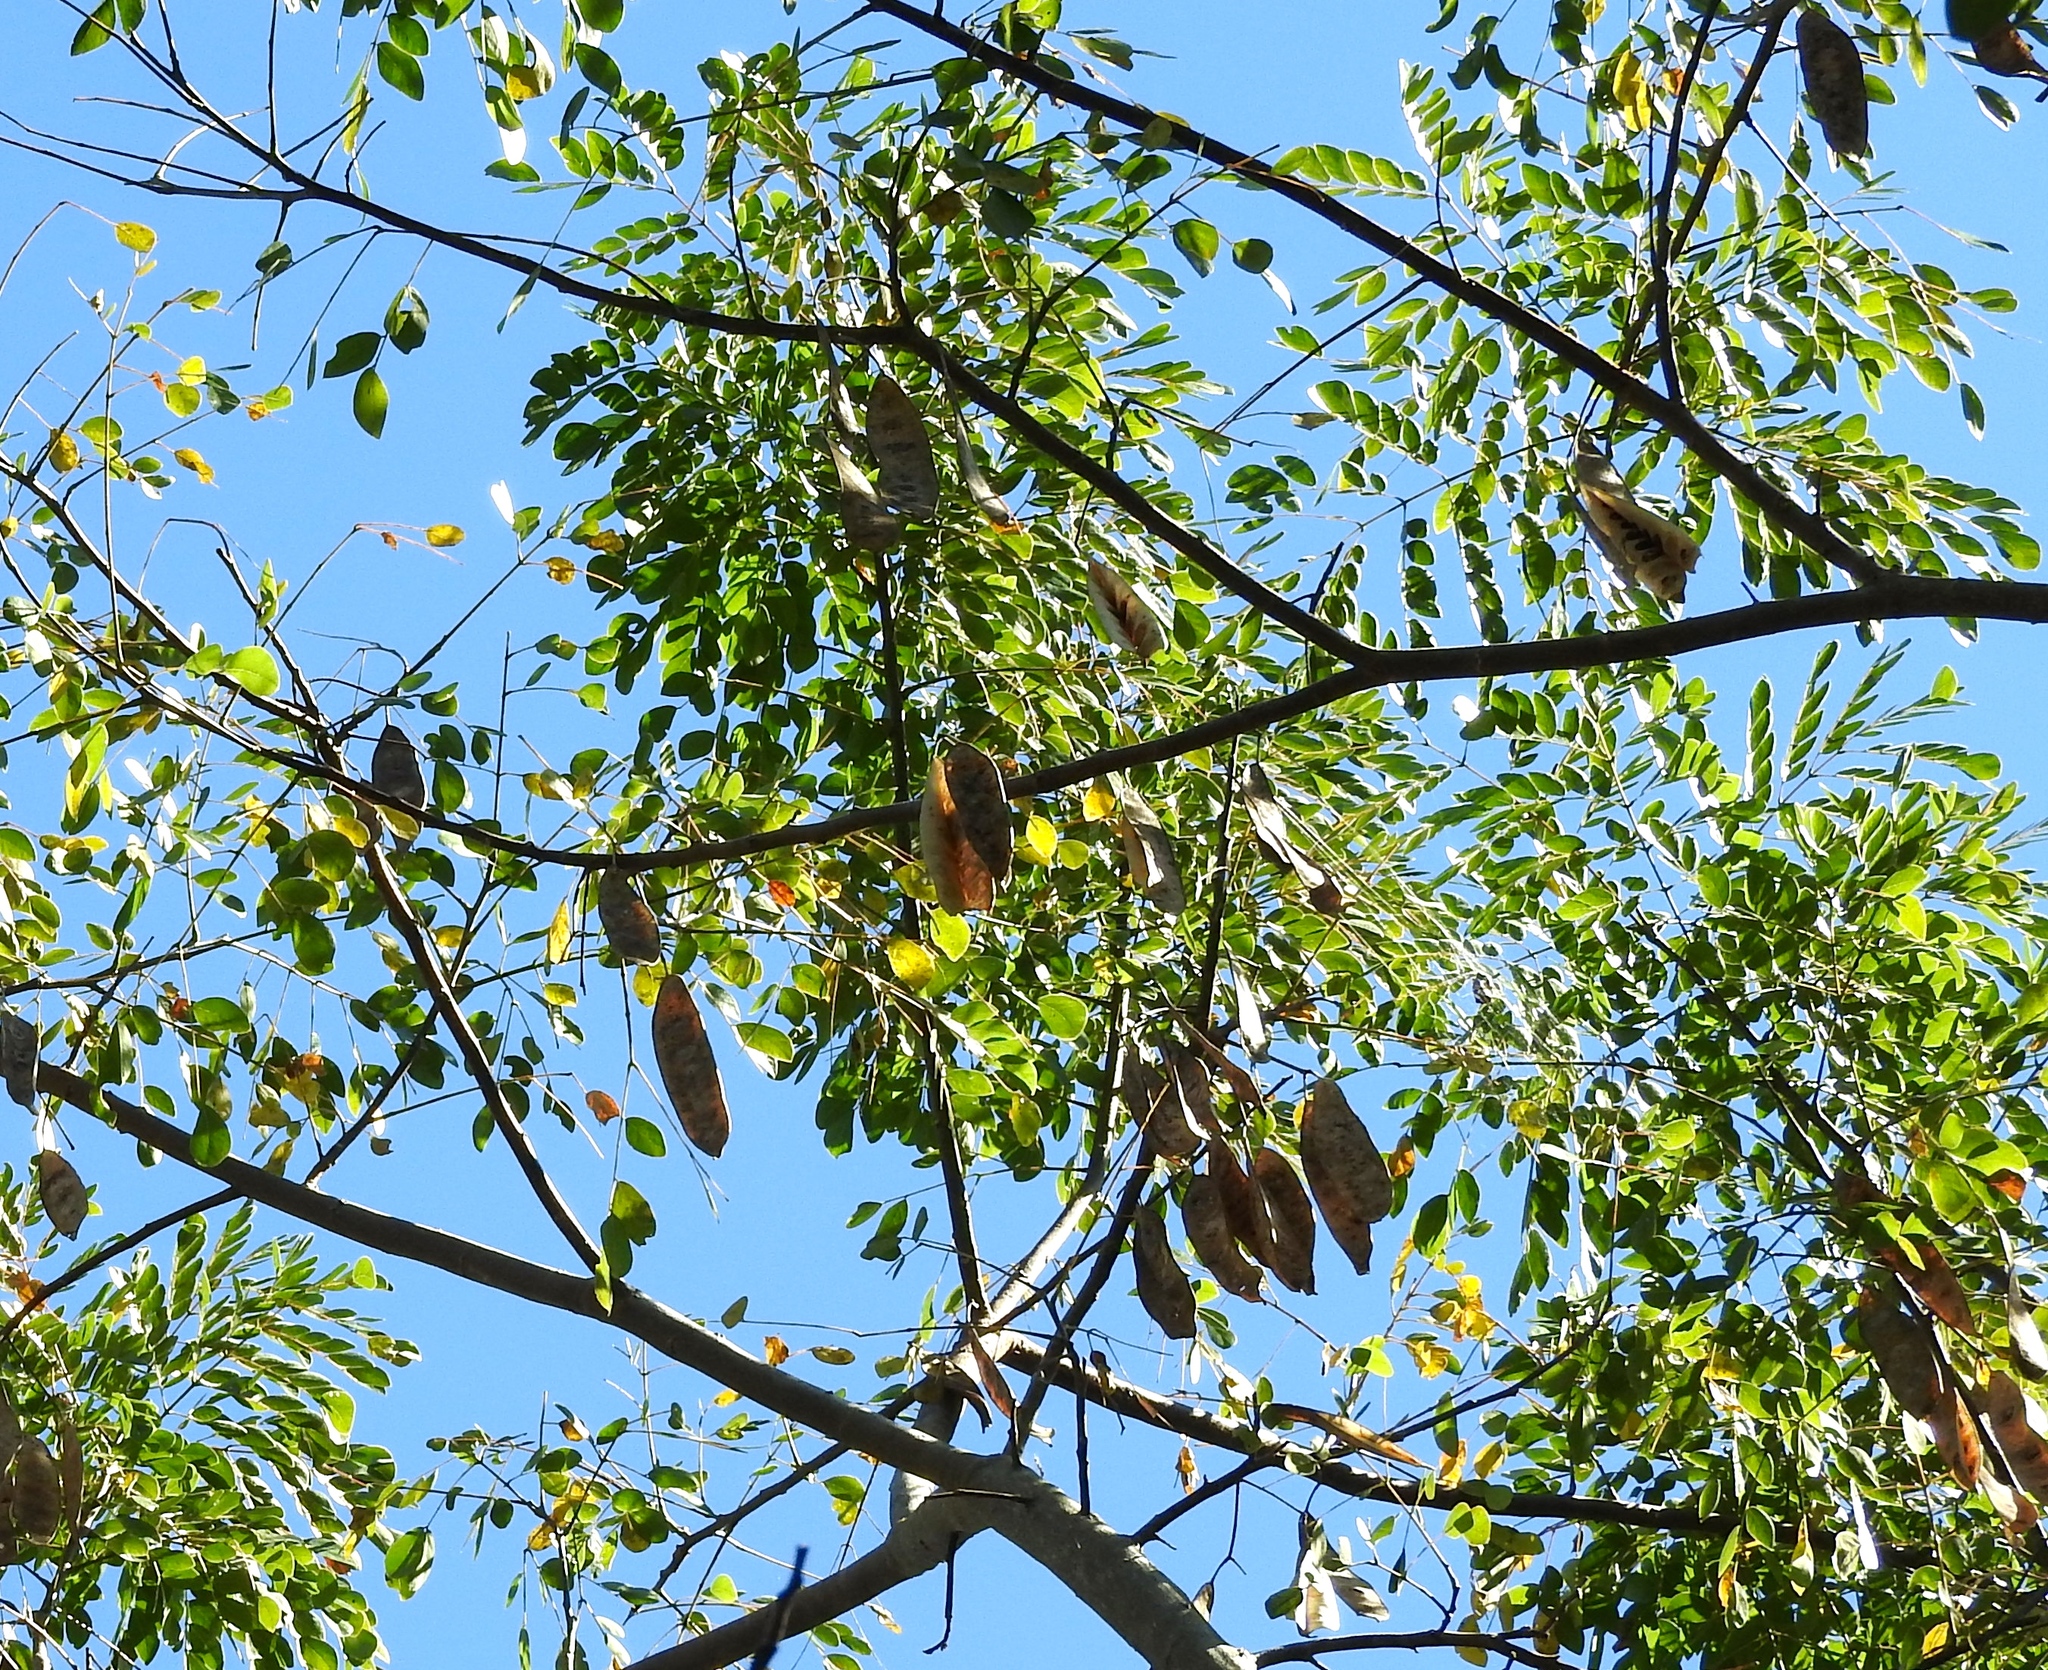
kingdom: Plantae
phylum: Tracheophyta
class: Magnoliopsida
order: Fabales
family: Fabaceae
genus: Albizia
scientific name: Albizia occidentalis
